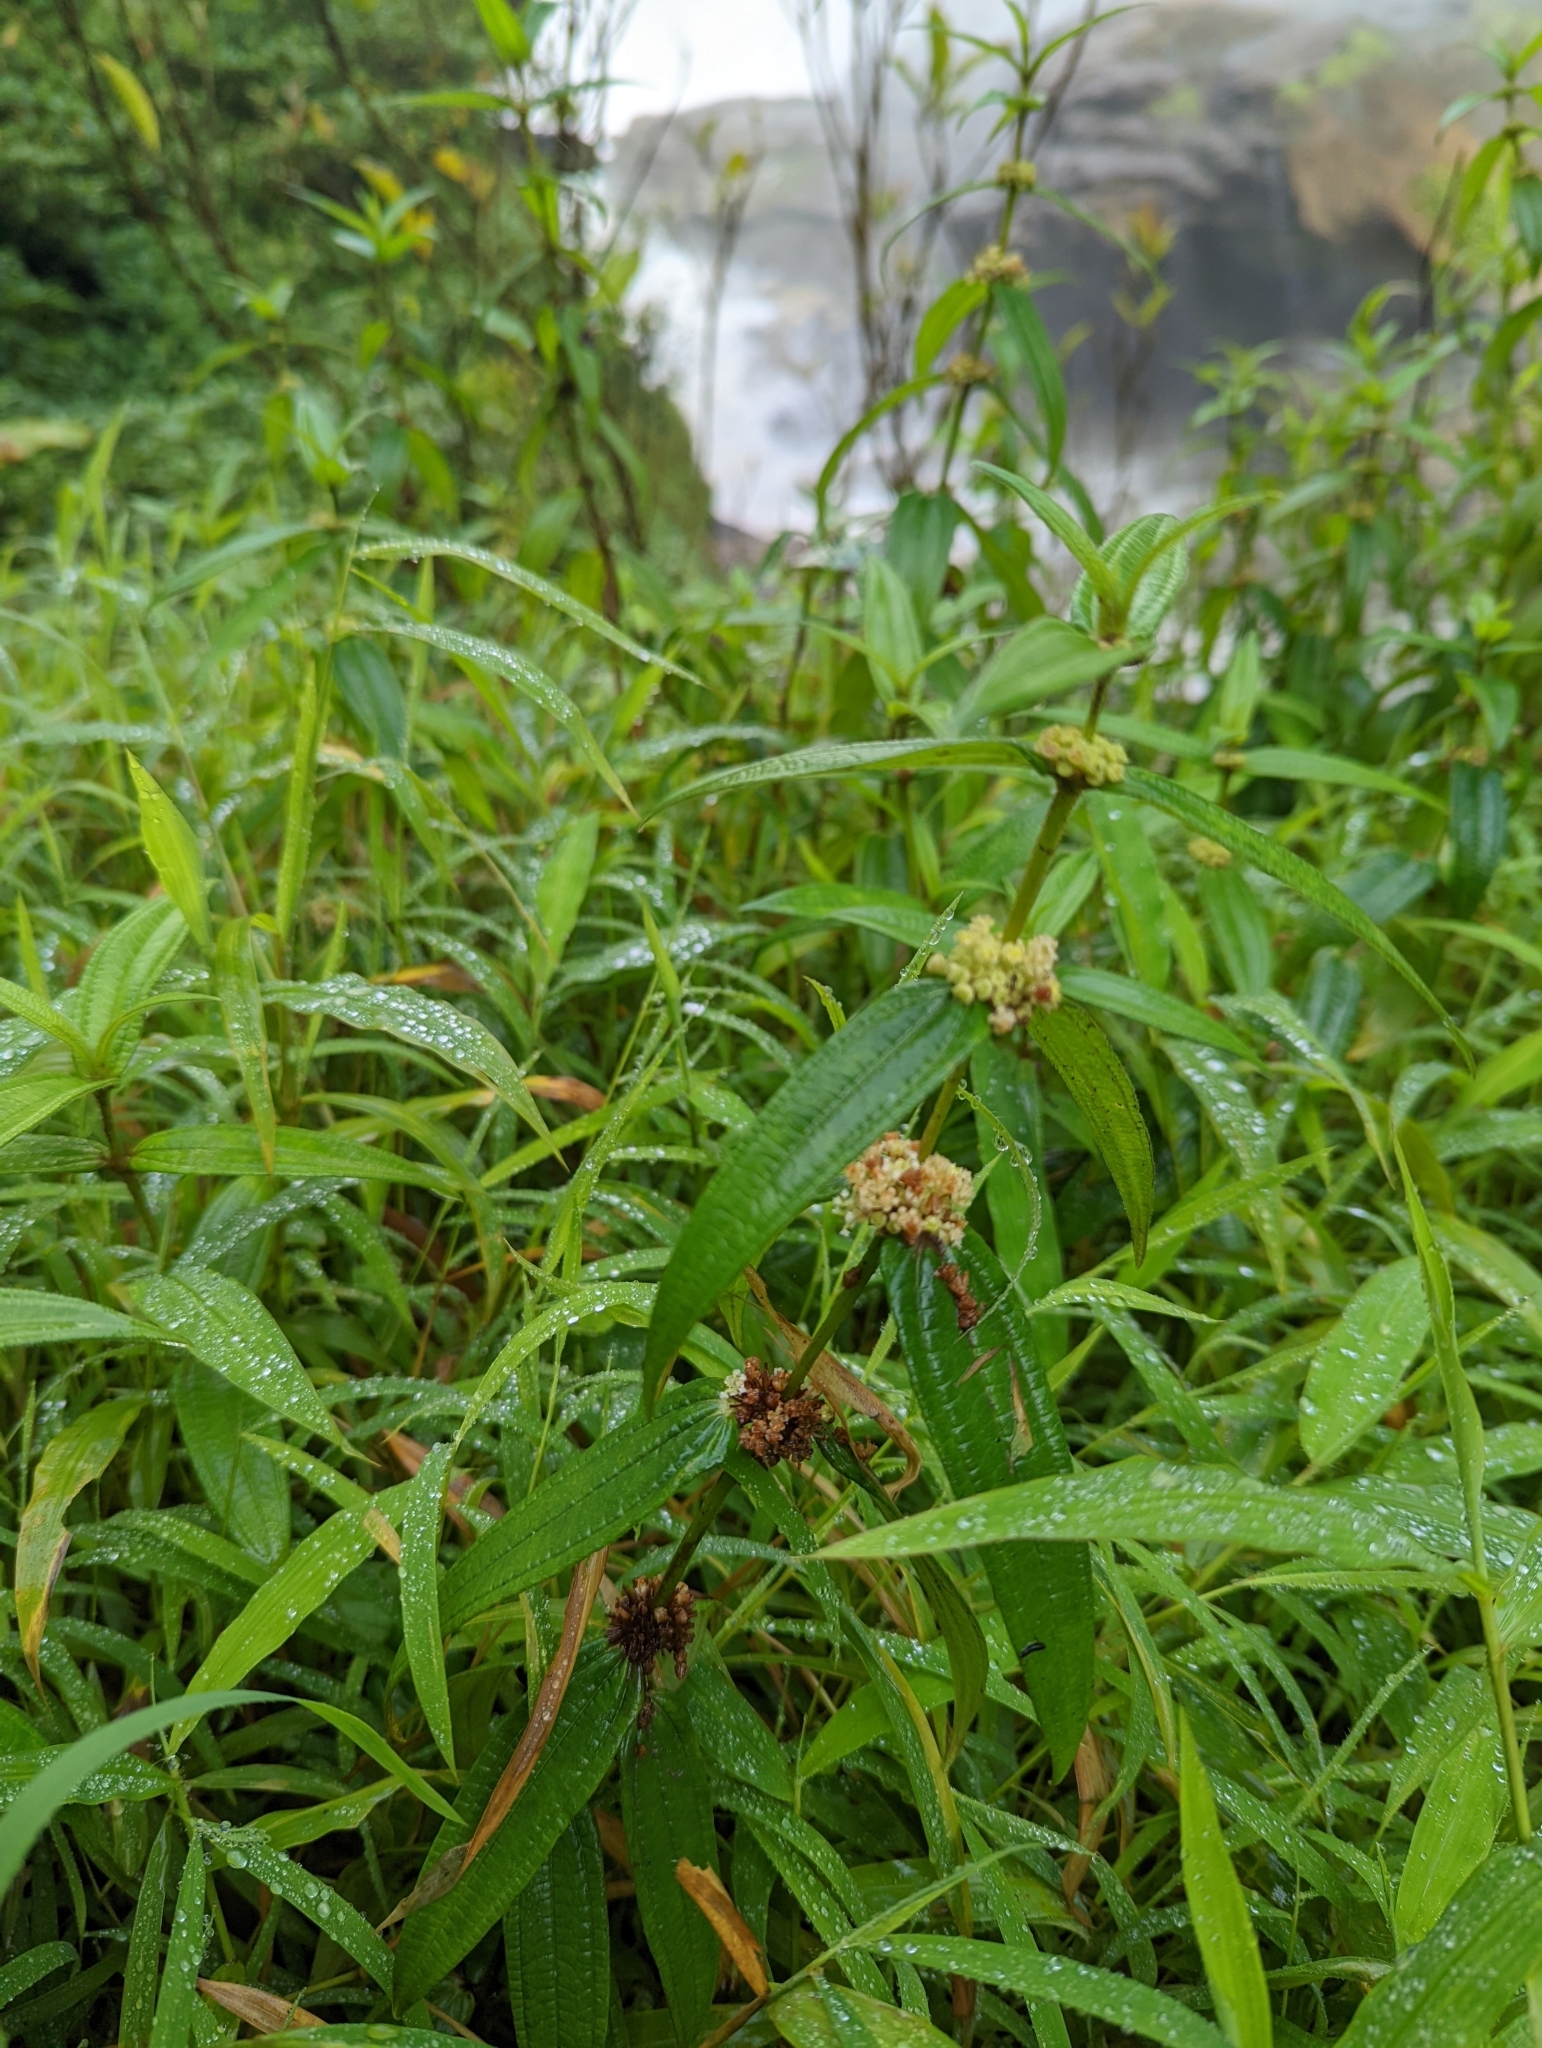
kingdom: Plantae
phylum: Tracheophyta
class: Magnoliopsida
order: Rosales
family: Urticaceae
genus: Gonostegia
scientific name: Gonostegia triandra
